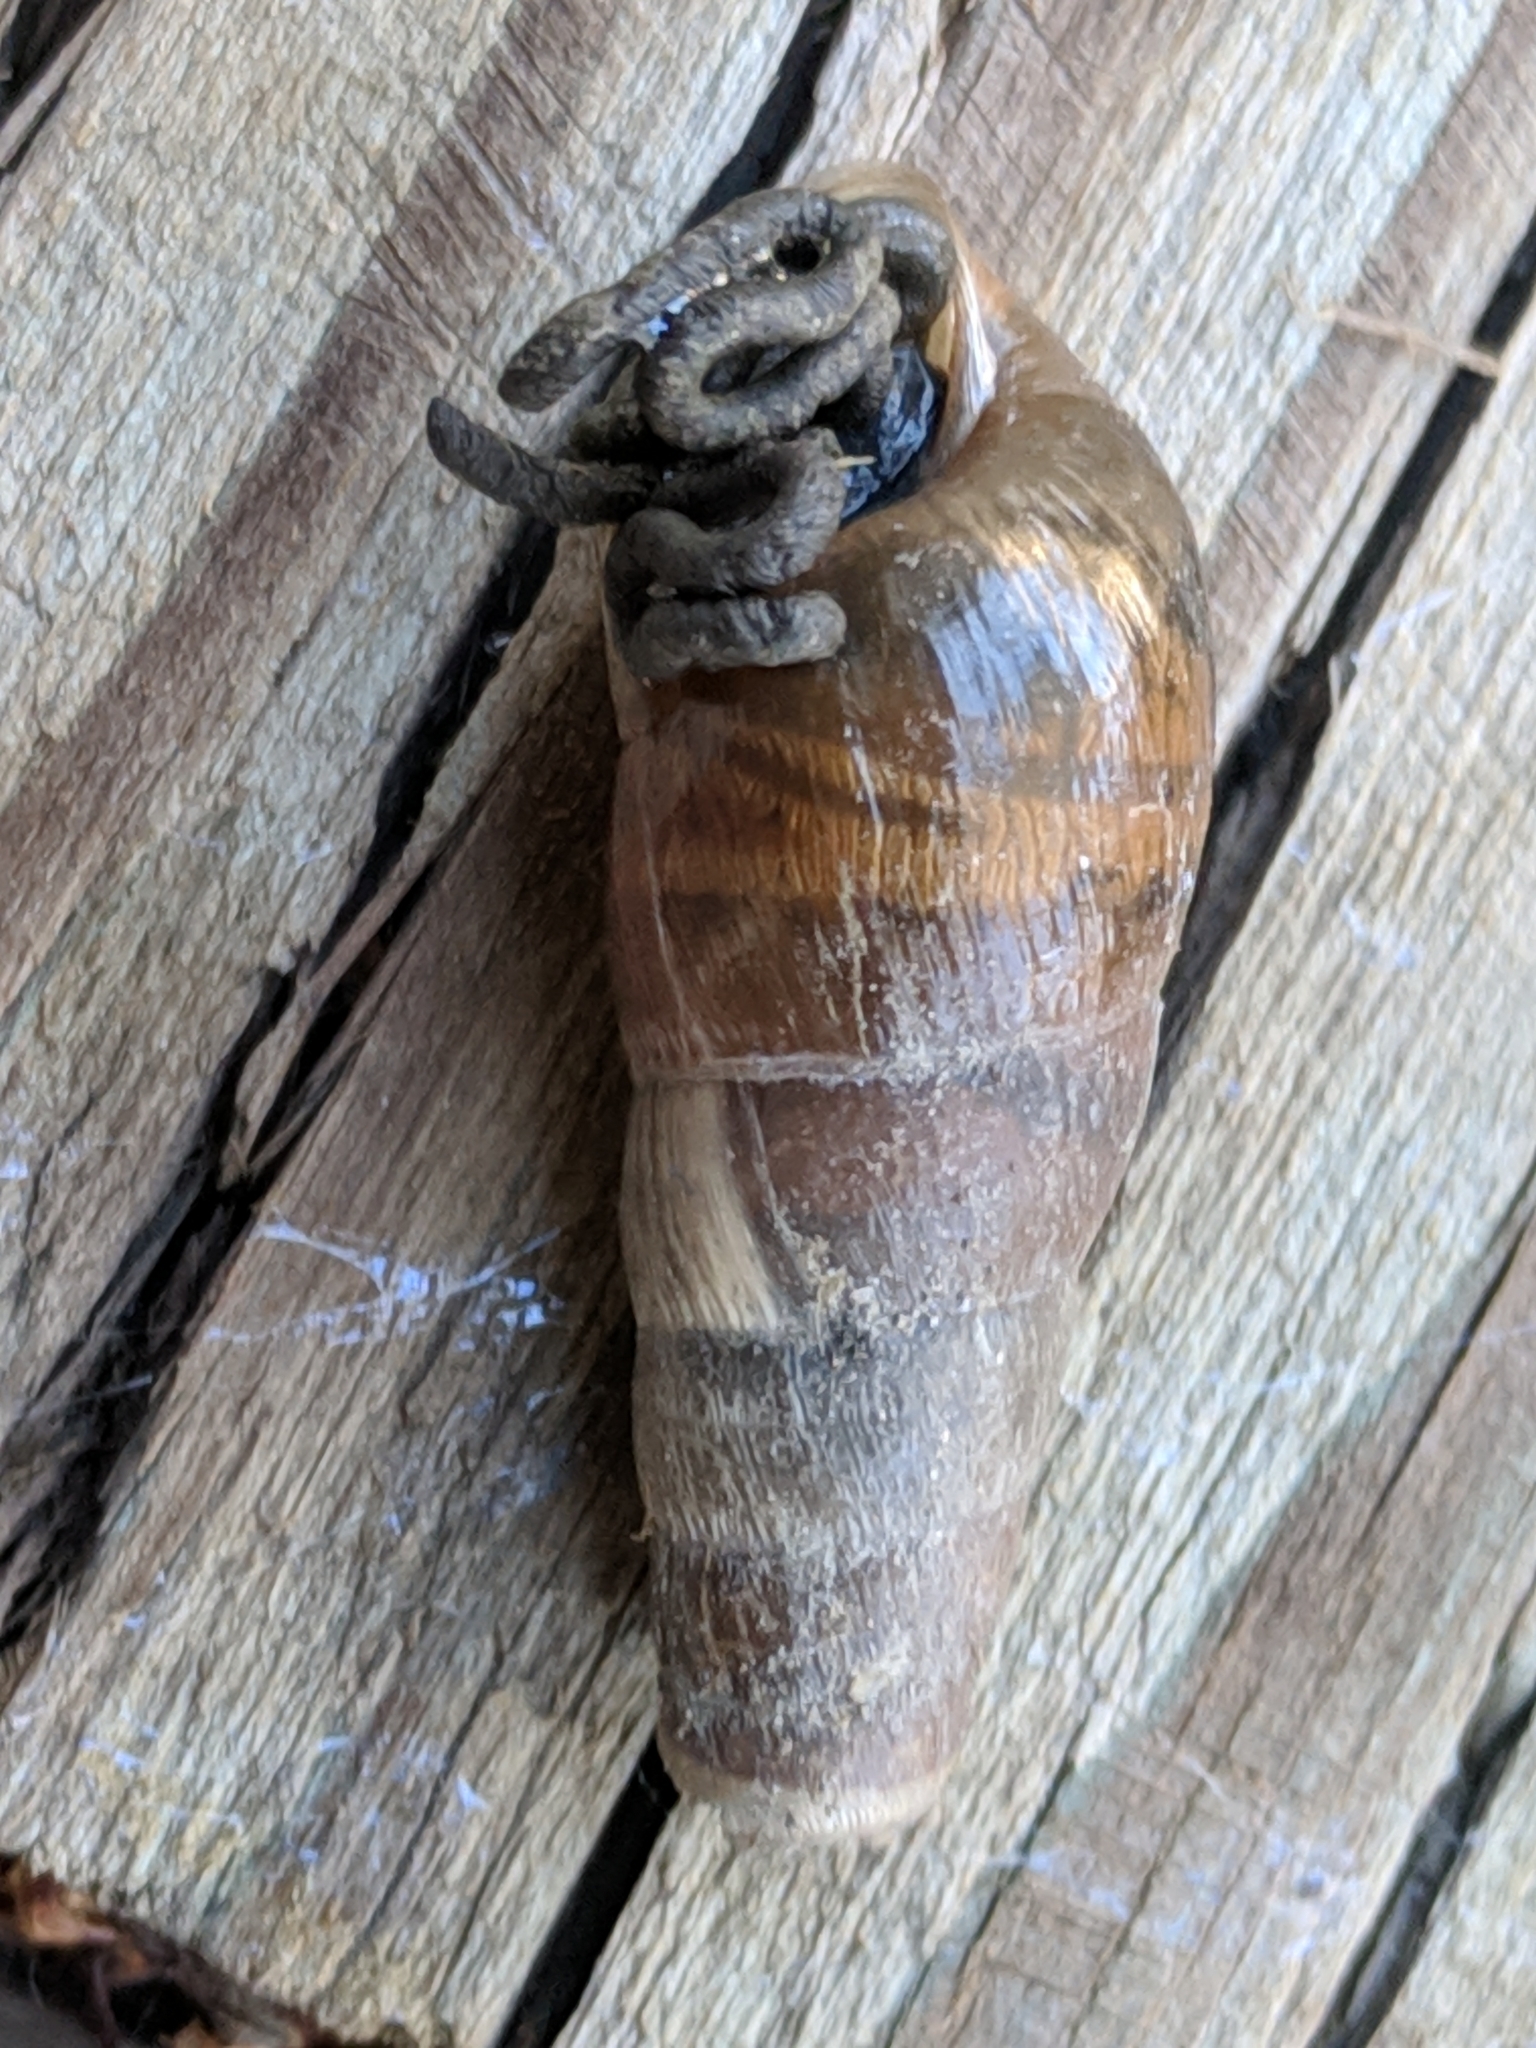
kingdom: Animalia
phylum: Mollusca
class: Gastropoda
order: Stylommatophora
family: Achatinidae
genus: Rumina
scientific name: Rumina decollata
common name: Decollate snail
